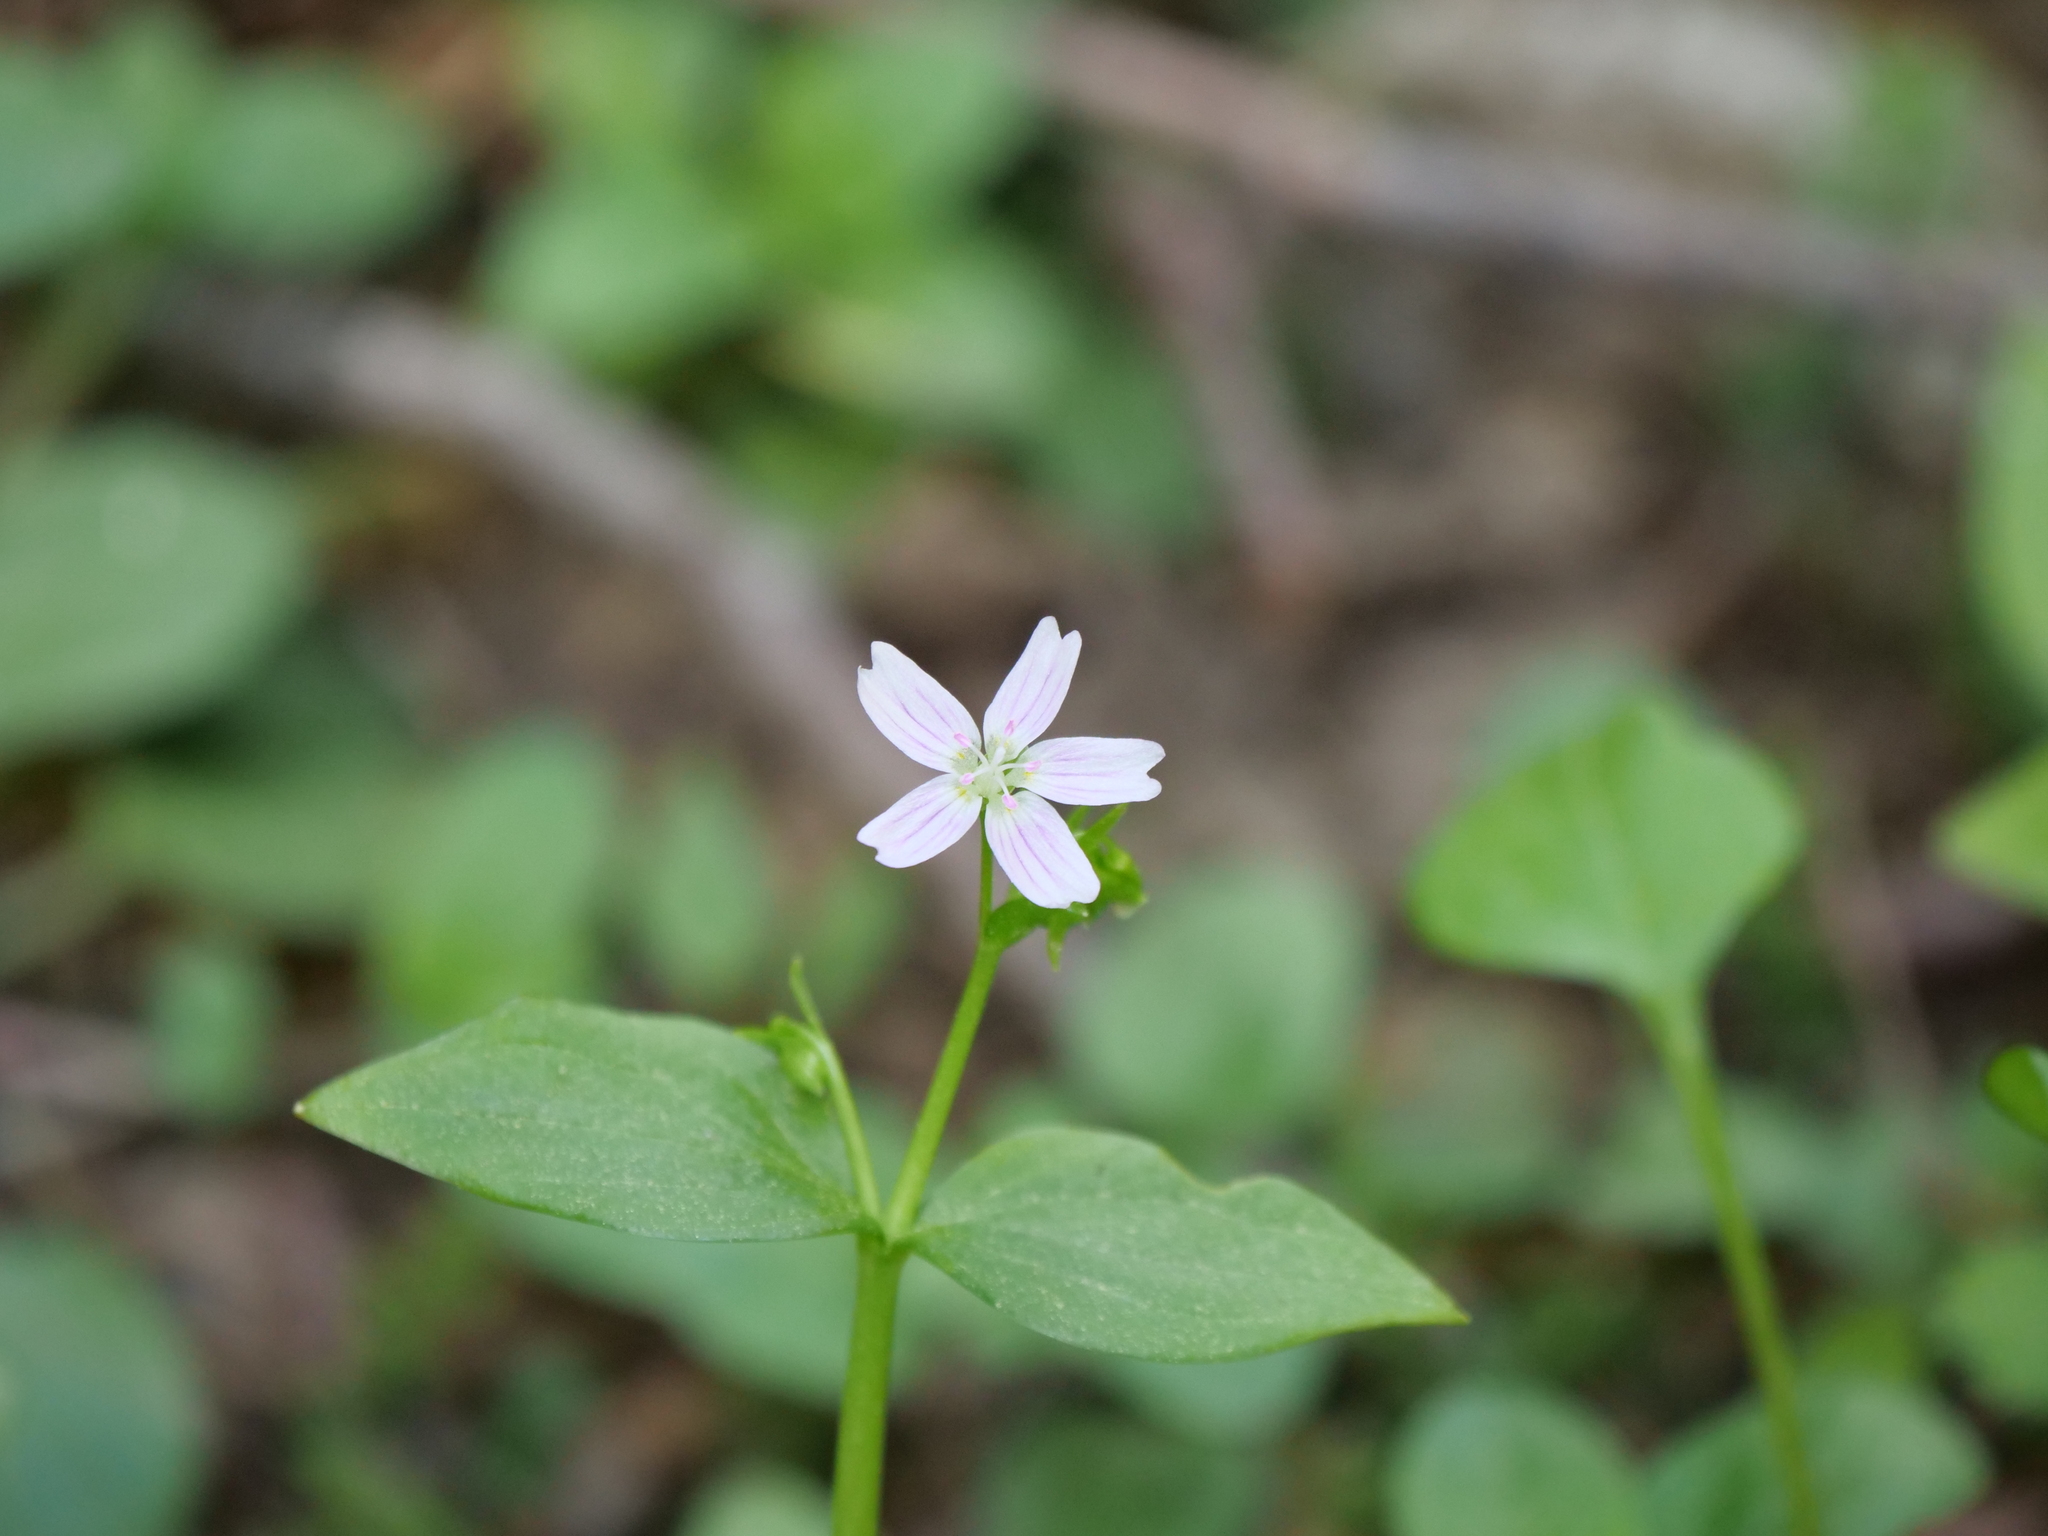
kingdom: Plantae
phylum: Tracheophyta
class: Magnoliopsida
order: Caryophyllales
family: Montiaceae
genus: Claytonia
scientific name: Claytonia sibirica
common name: Pink purslane
